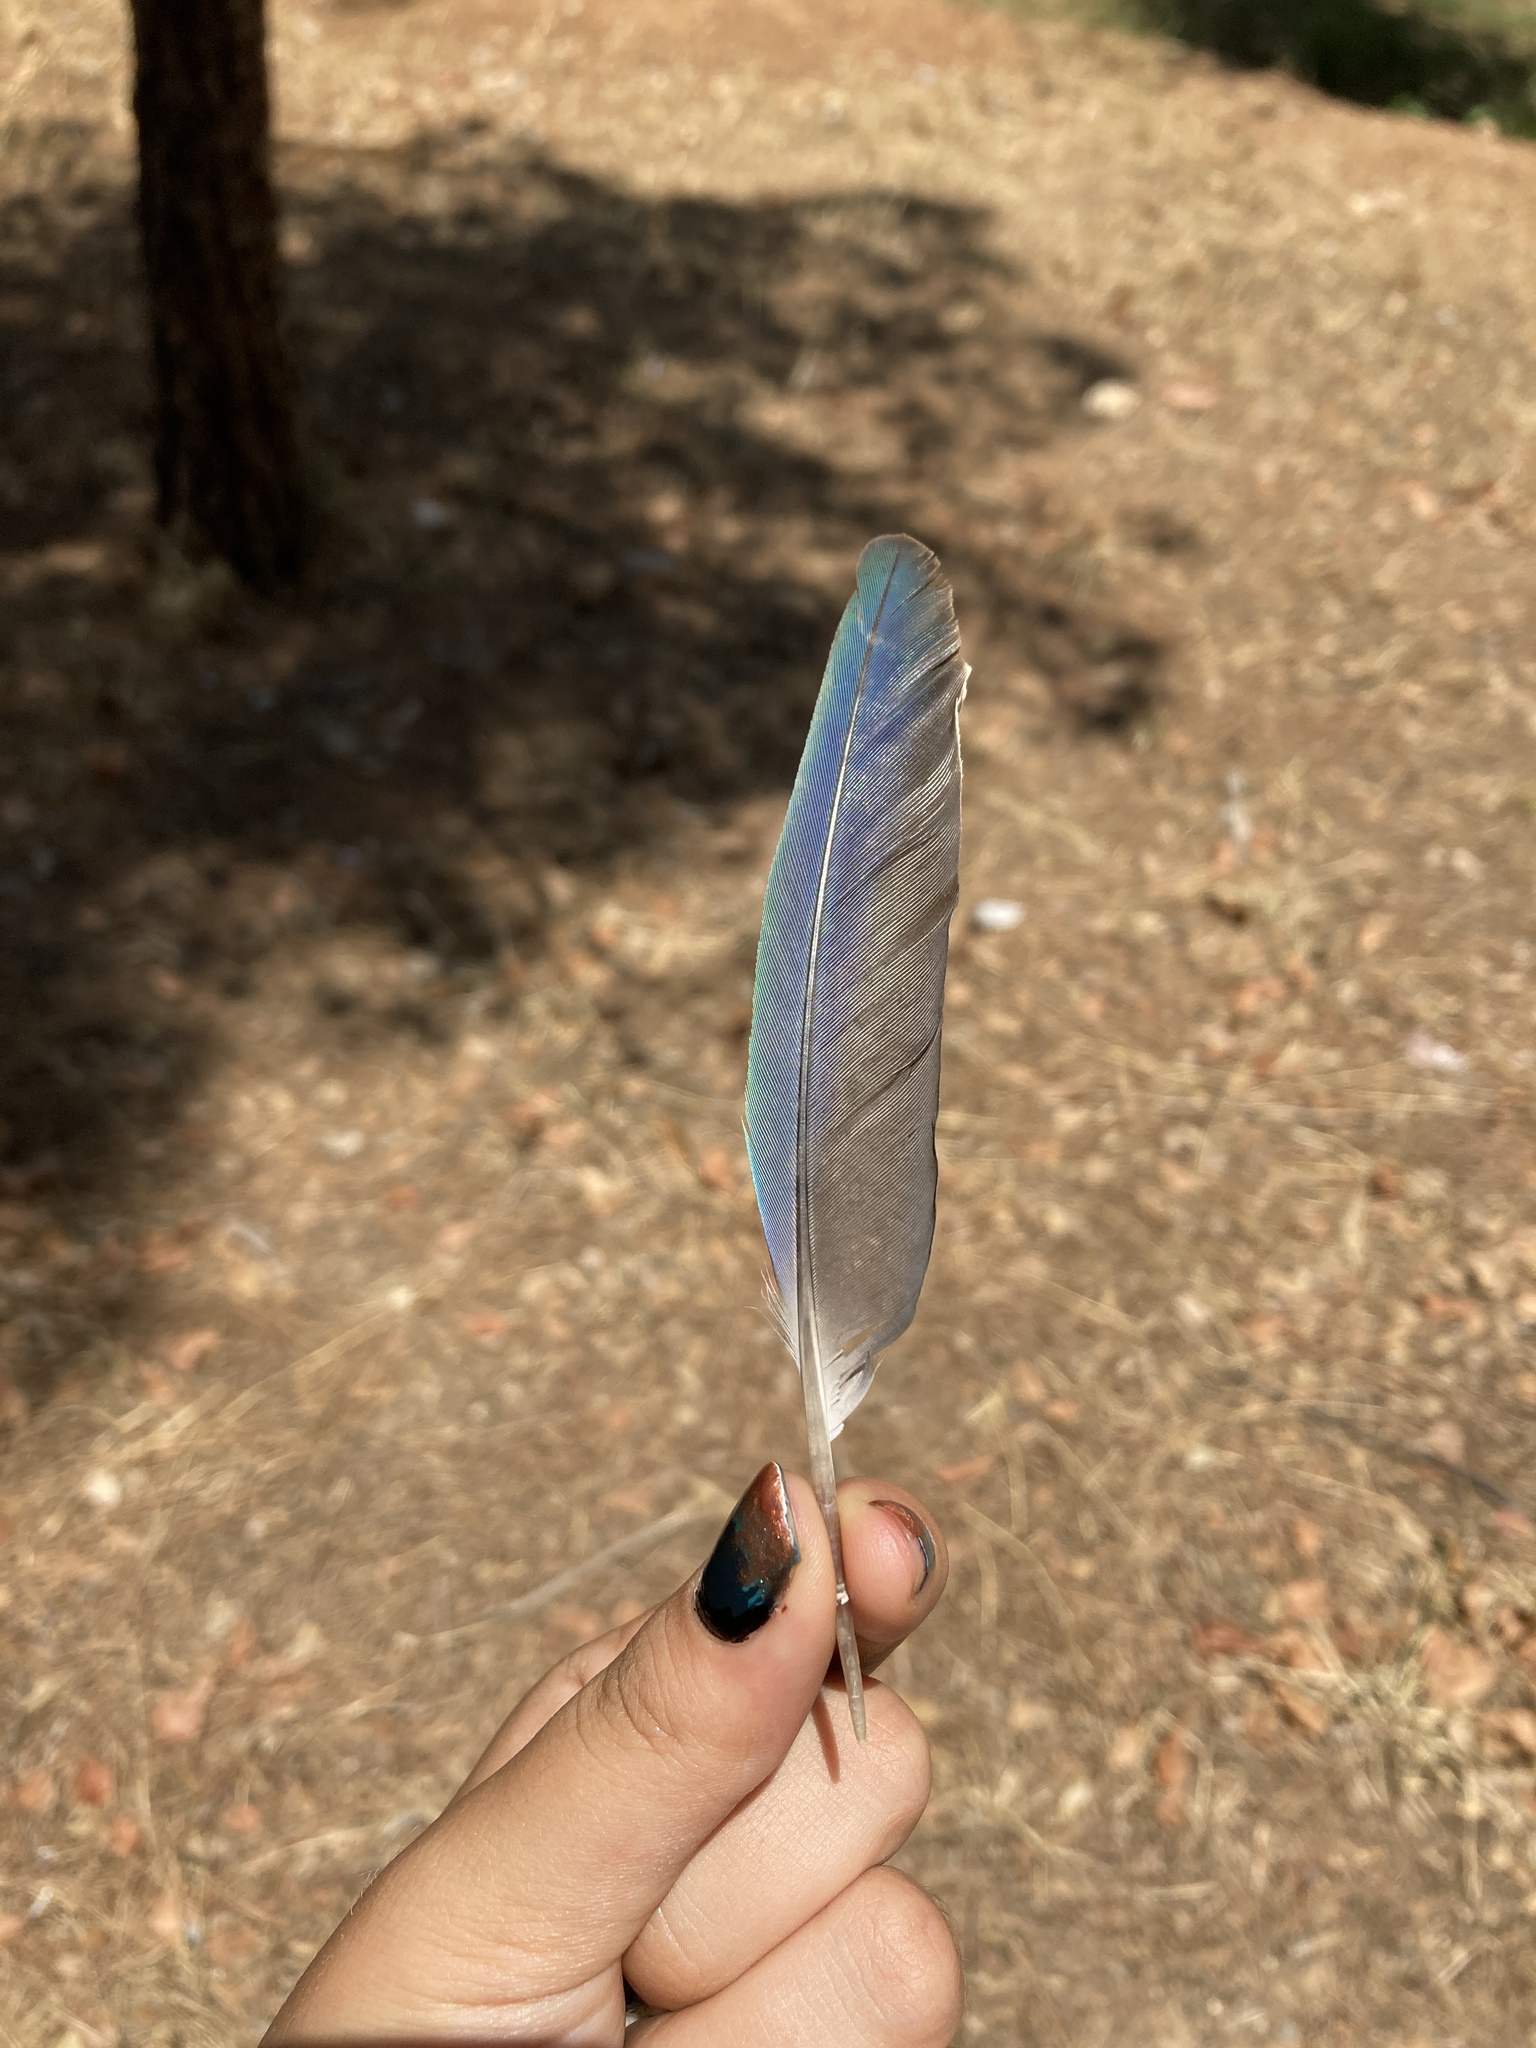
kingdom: Animalia
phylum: Chordata
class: Aves
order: Psittaciformes
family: Psittacidae
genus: Myiopsitta
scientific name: Myiopsitta monachus
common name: Monk parakeet
